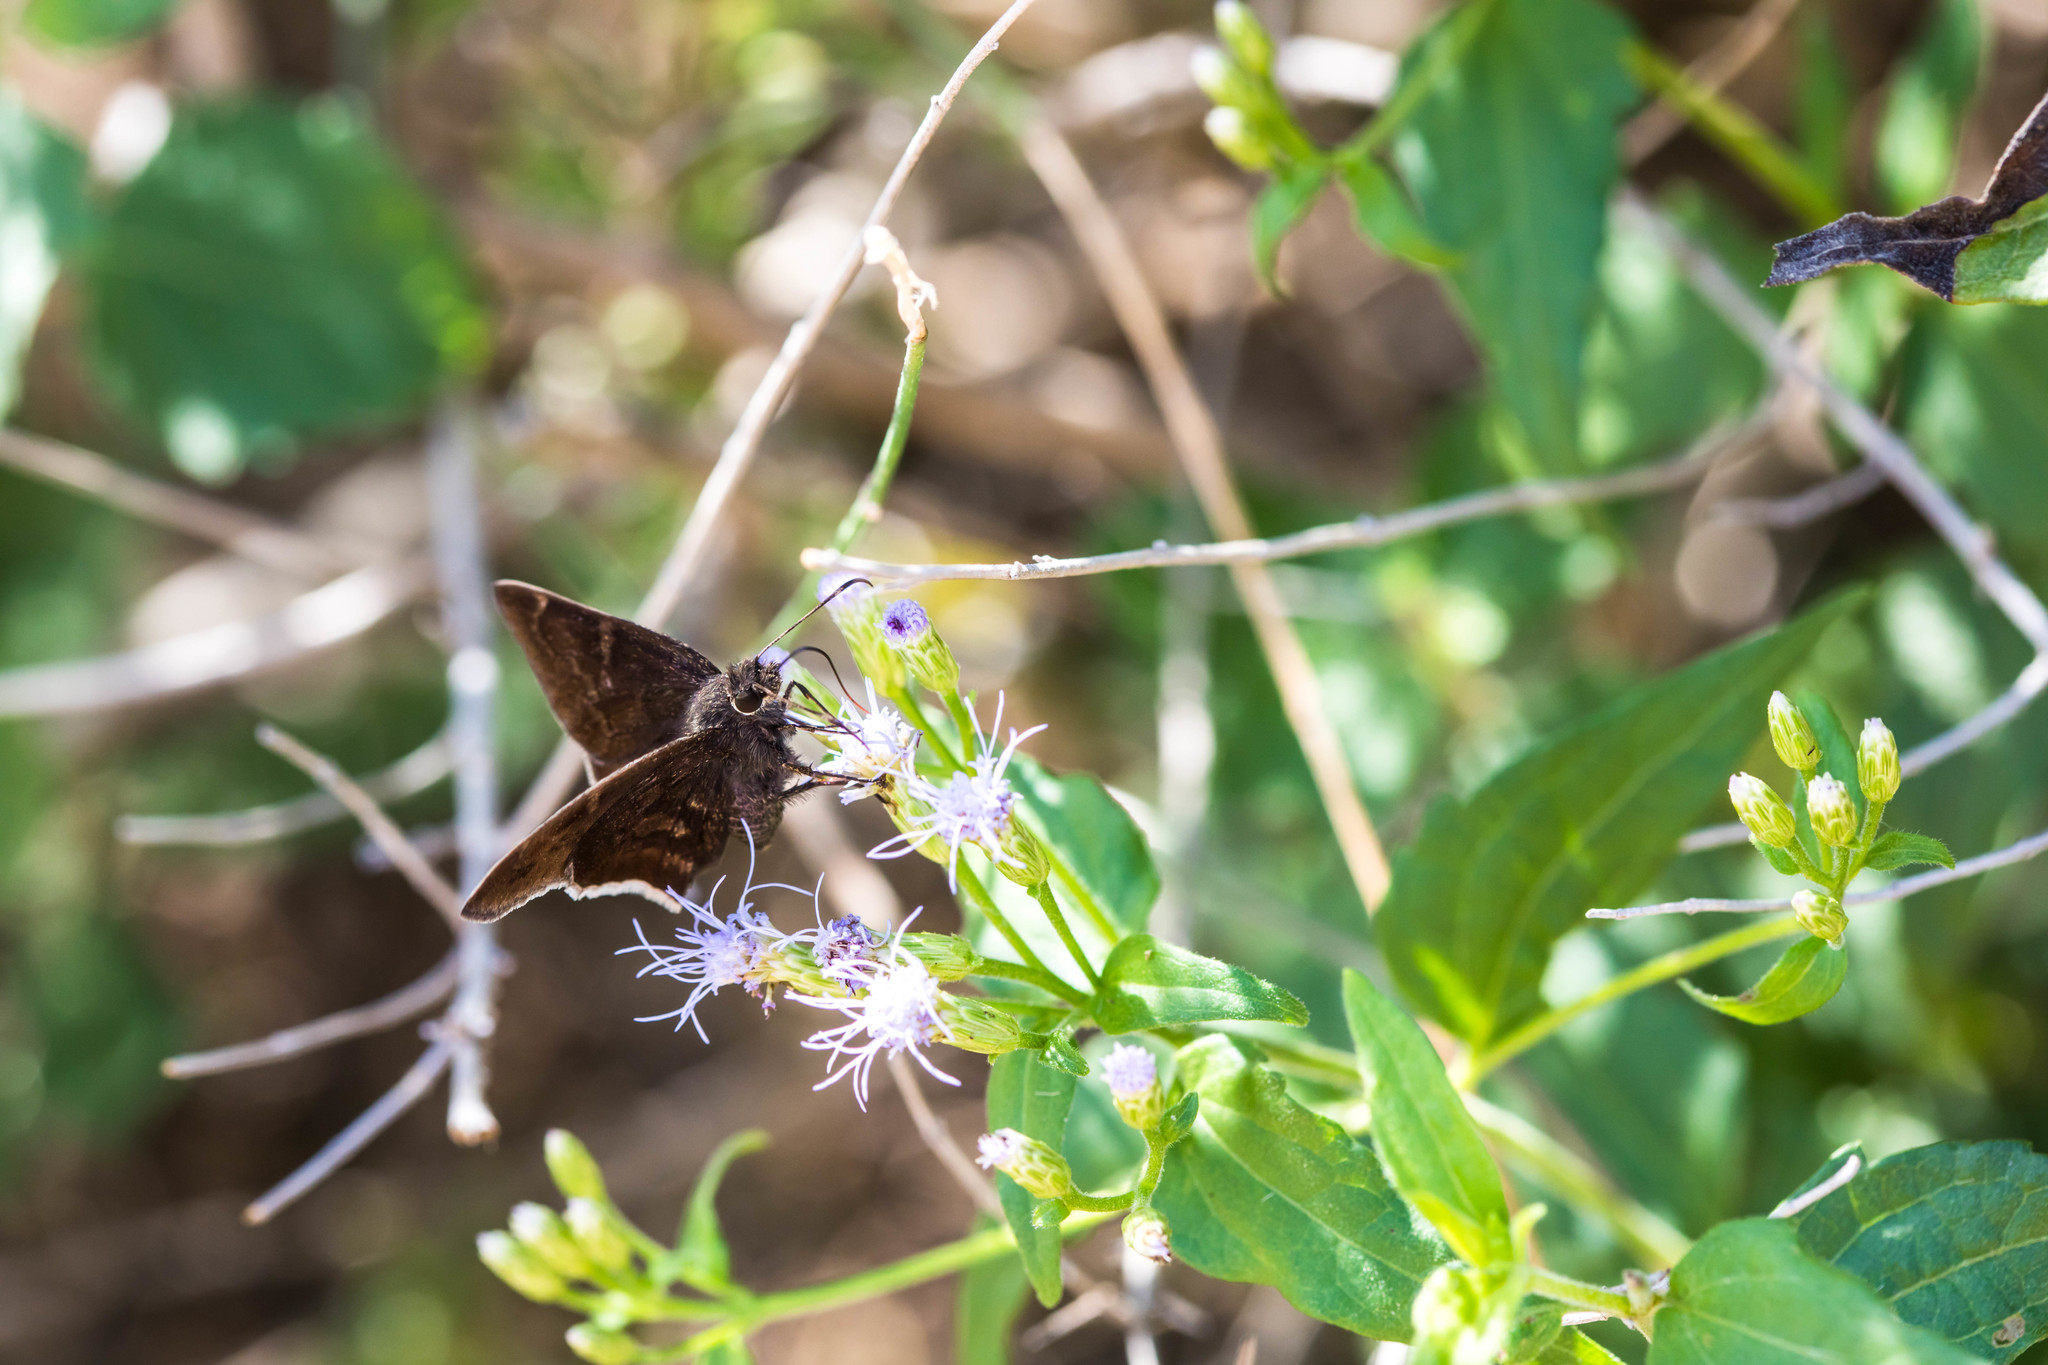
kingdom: Animalia
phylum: Arthropoda
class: Insecta
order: Lepidoptera
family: Hesperiidae
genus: Achalarus
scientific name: Achalarus Murgaria albociliatus
